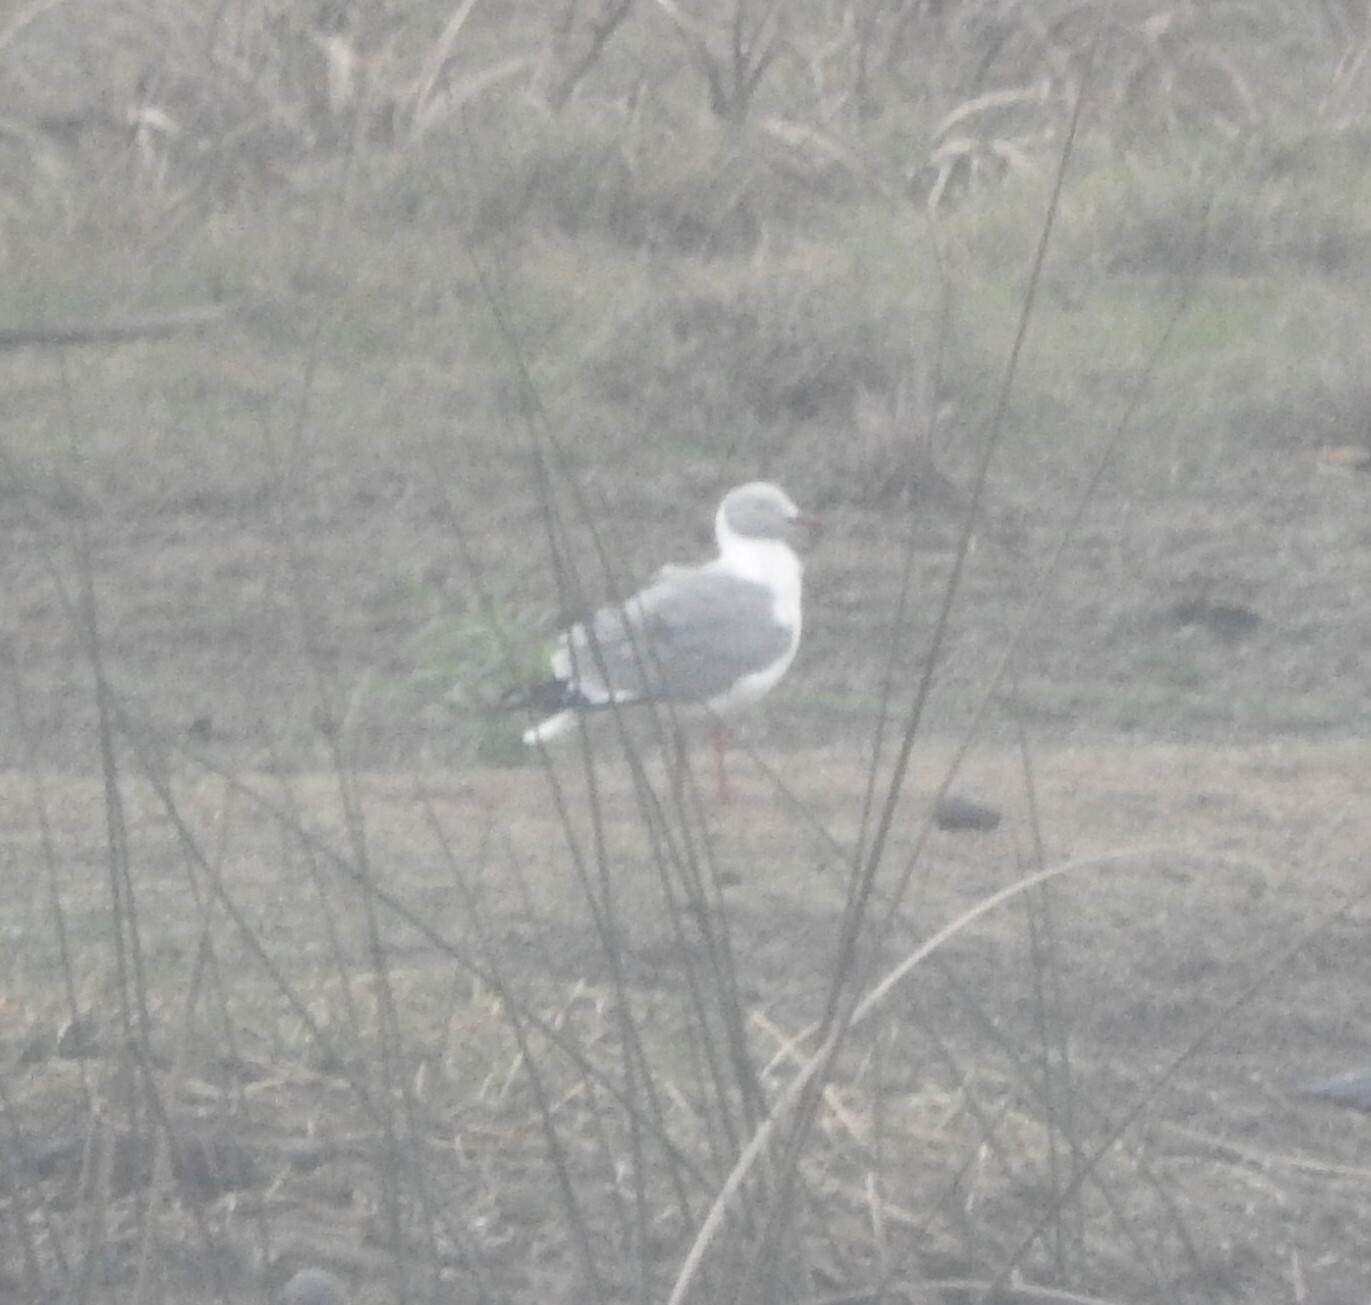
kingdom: Animalia
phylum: Chordata
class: Aves
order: Charadriiformes
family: Laridae
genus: Chroicocephalus
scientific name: Chroicocephalus cirrocephalus
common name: Grey-headed gull
